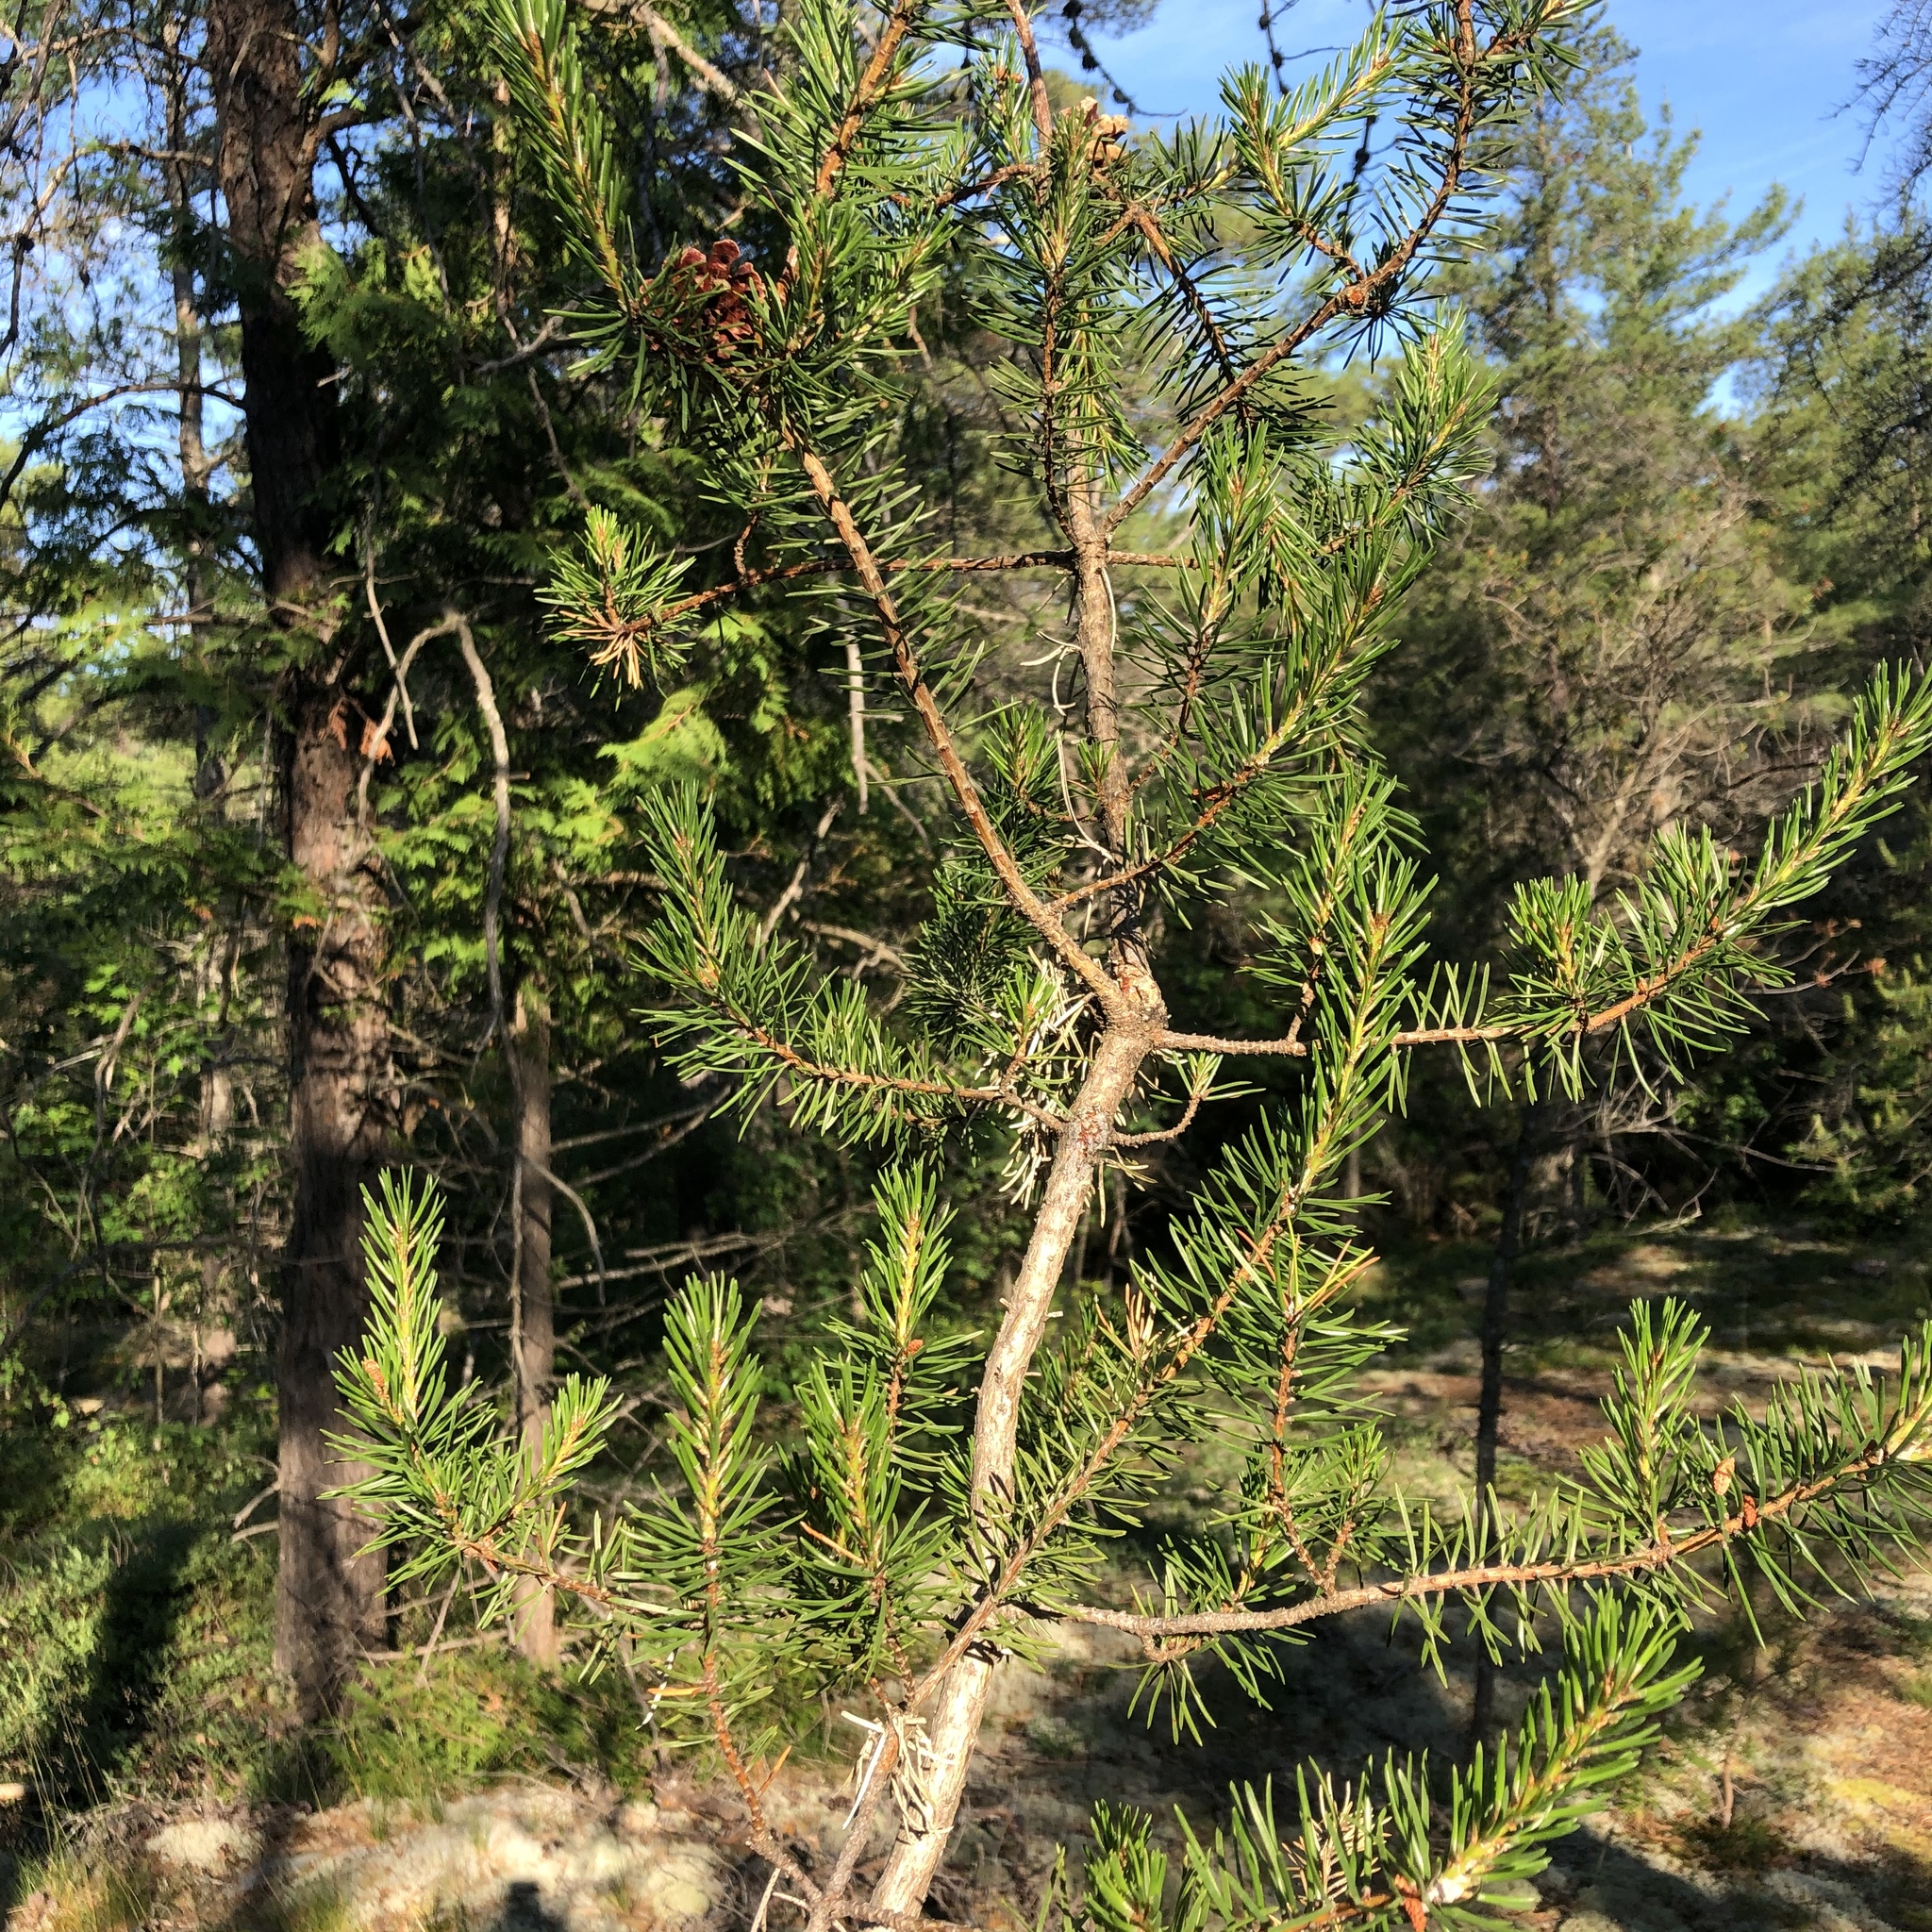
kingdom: Plantae
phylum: Tracheophyta
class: Pinopsida
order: Pinales
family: Pinaceae
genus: Pinus
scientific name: Pinus banksiana
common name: Jack pine
